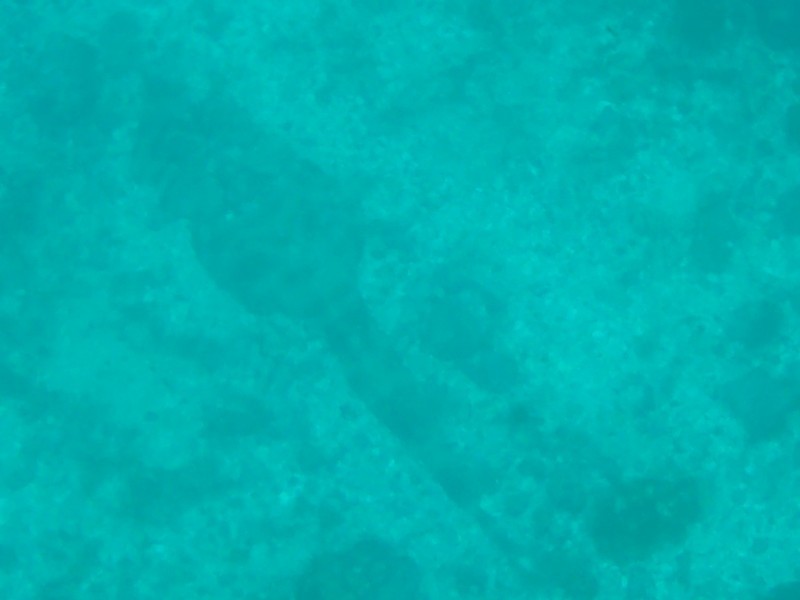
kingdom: Animalia
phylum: Chordata
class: Elasmobranchii
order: Rhinopristiformes
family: Rhinobatidae
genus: Zapteryx
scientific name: Zapteryx xyster
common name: Witch guitarfish
